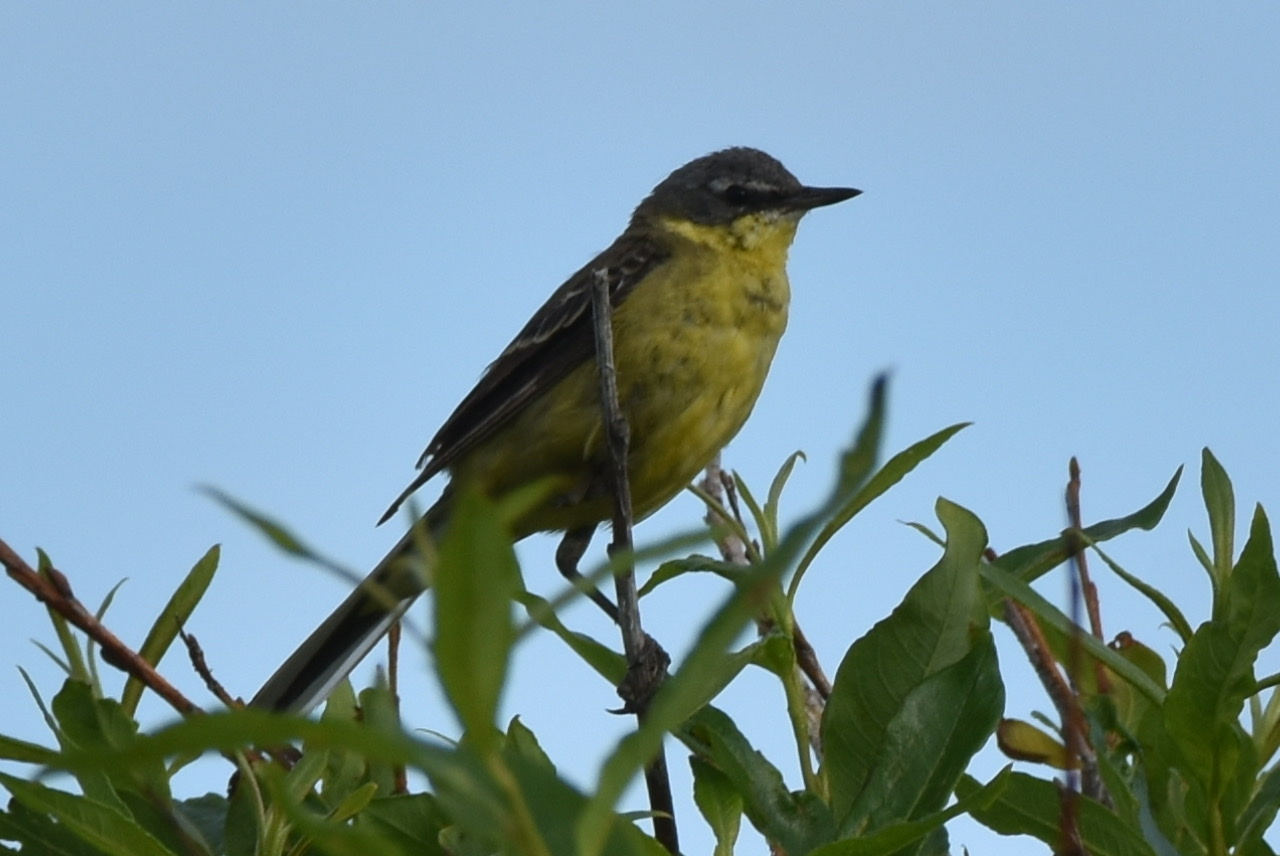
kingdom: Animalia
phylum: Chordata
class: Aves
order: Passeriformes
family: Motacillidae
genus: Motacilla
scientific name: Motacilla tschutschensis
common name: Eastern yellow wagtail
